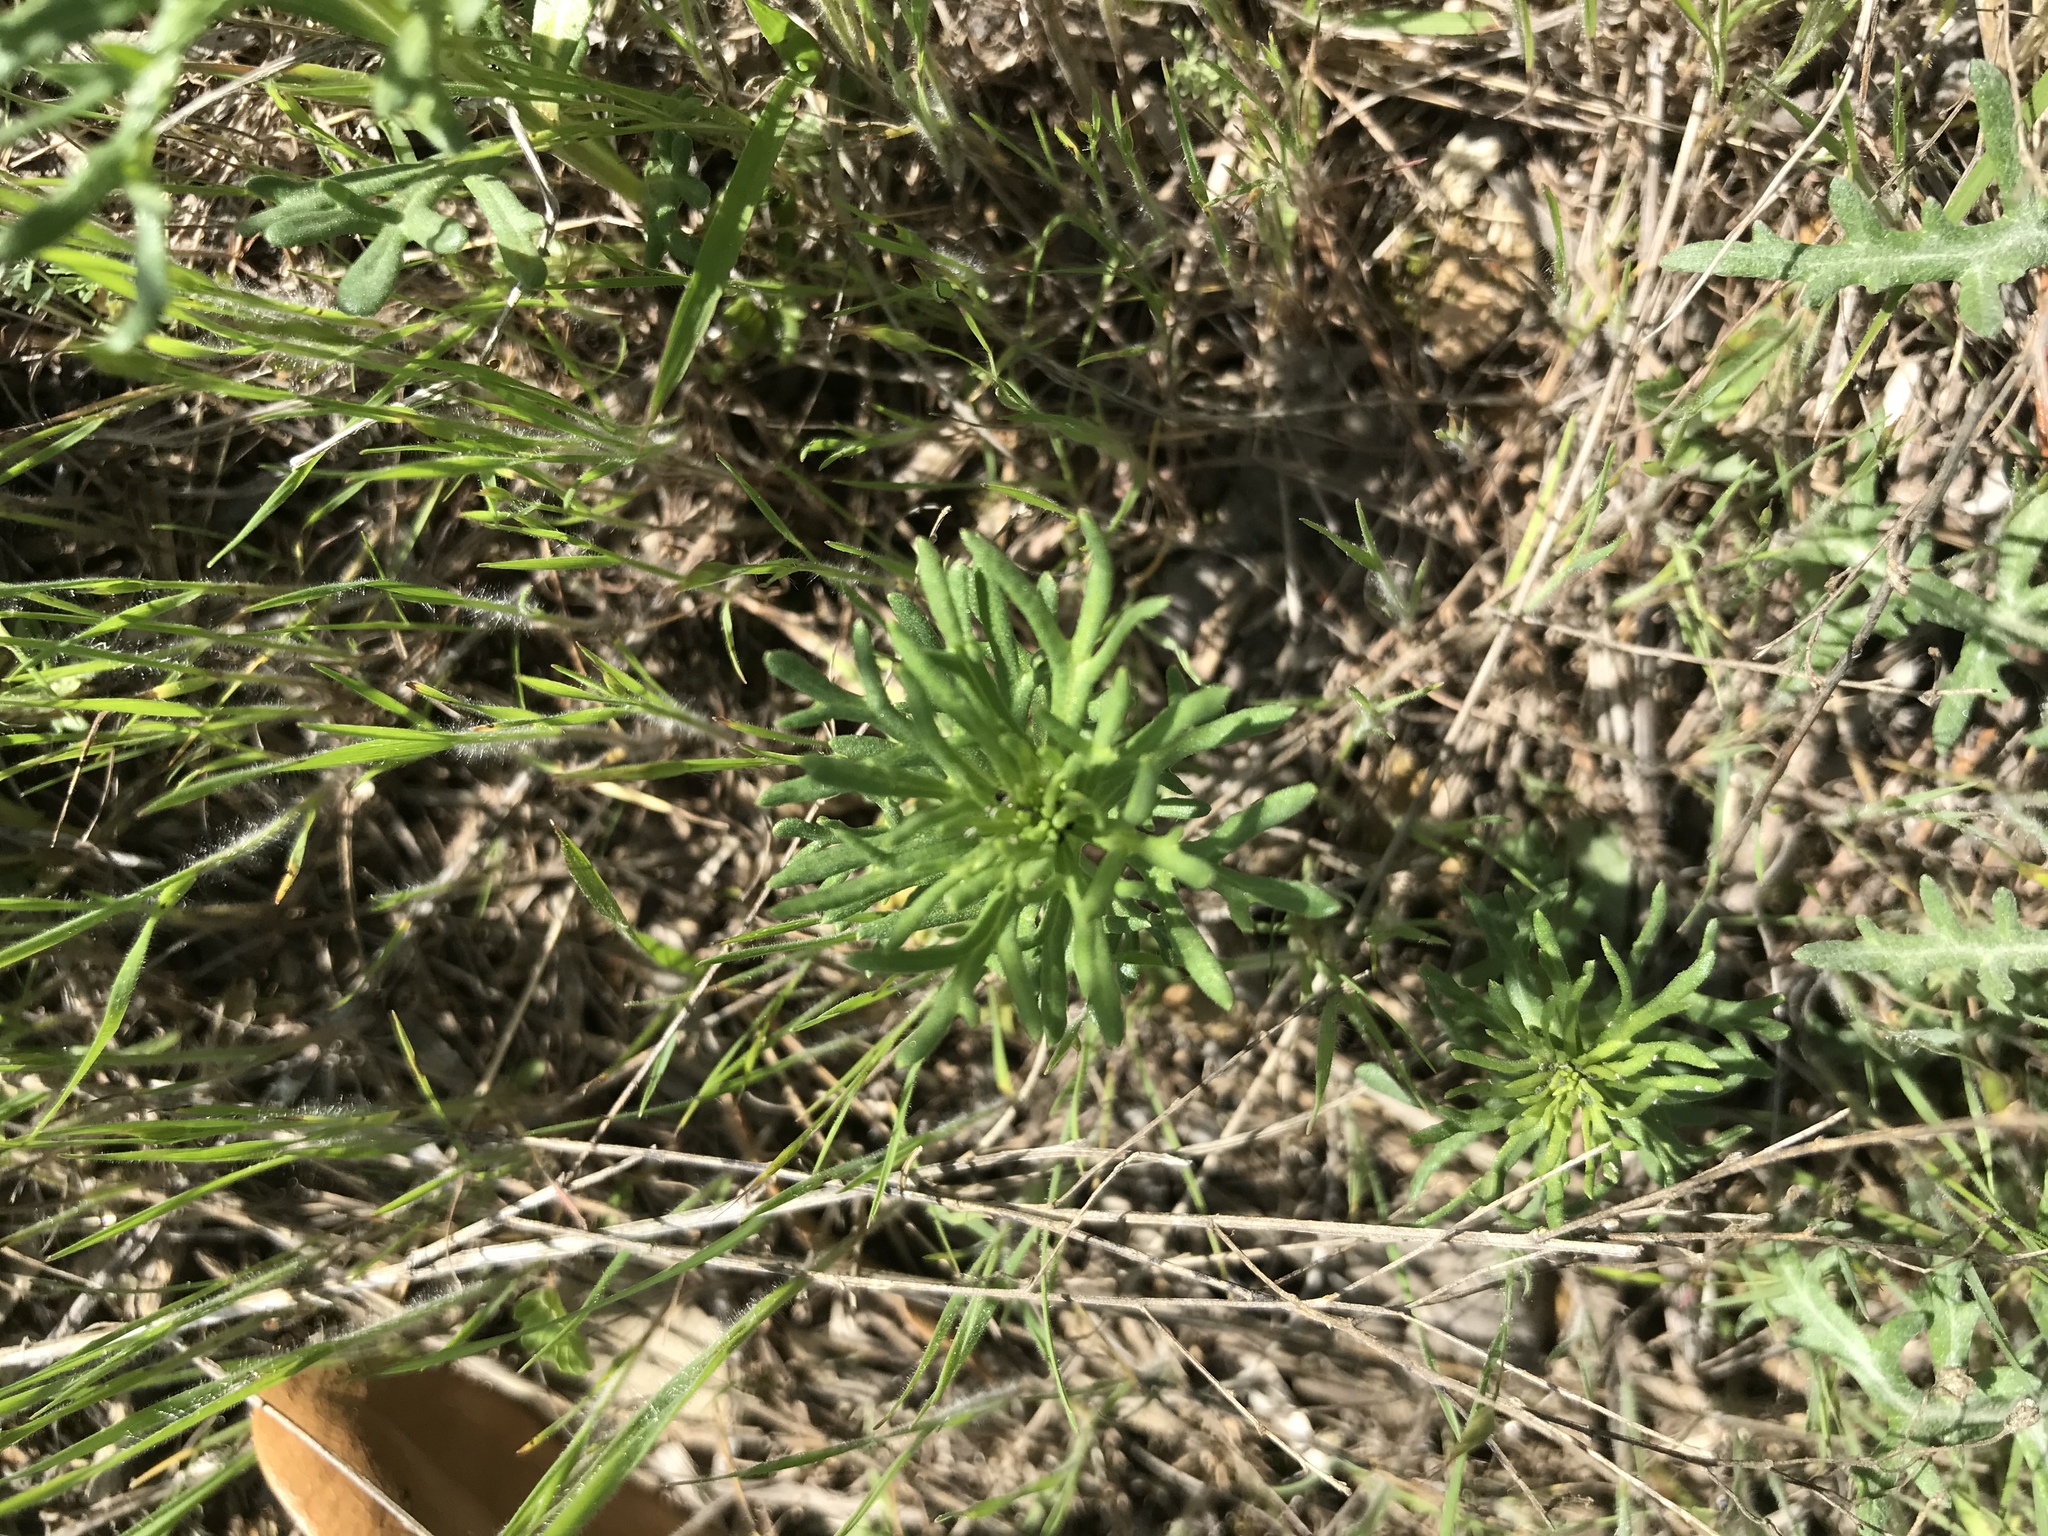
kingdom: Plantae
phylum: Tracheophyta
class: Magnoliopsida
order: Lamiales
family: Lamiaceae
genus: Teucrium
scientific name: Teucrium laciniatum
